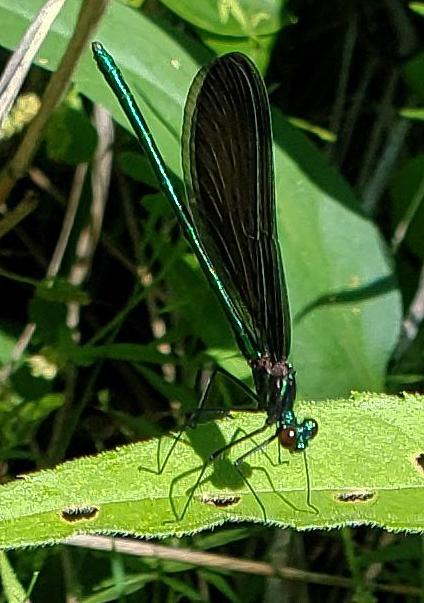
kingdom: Animalia
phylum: Arthropoda
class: Insecta
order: Odonata
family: Calopterygidae
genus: Calopteryx
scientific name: Calopteryx maculata
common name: Ebony jewelwing
